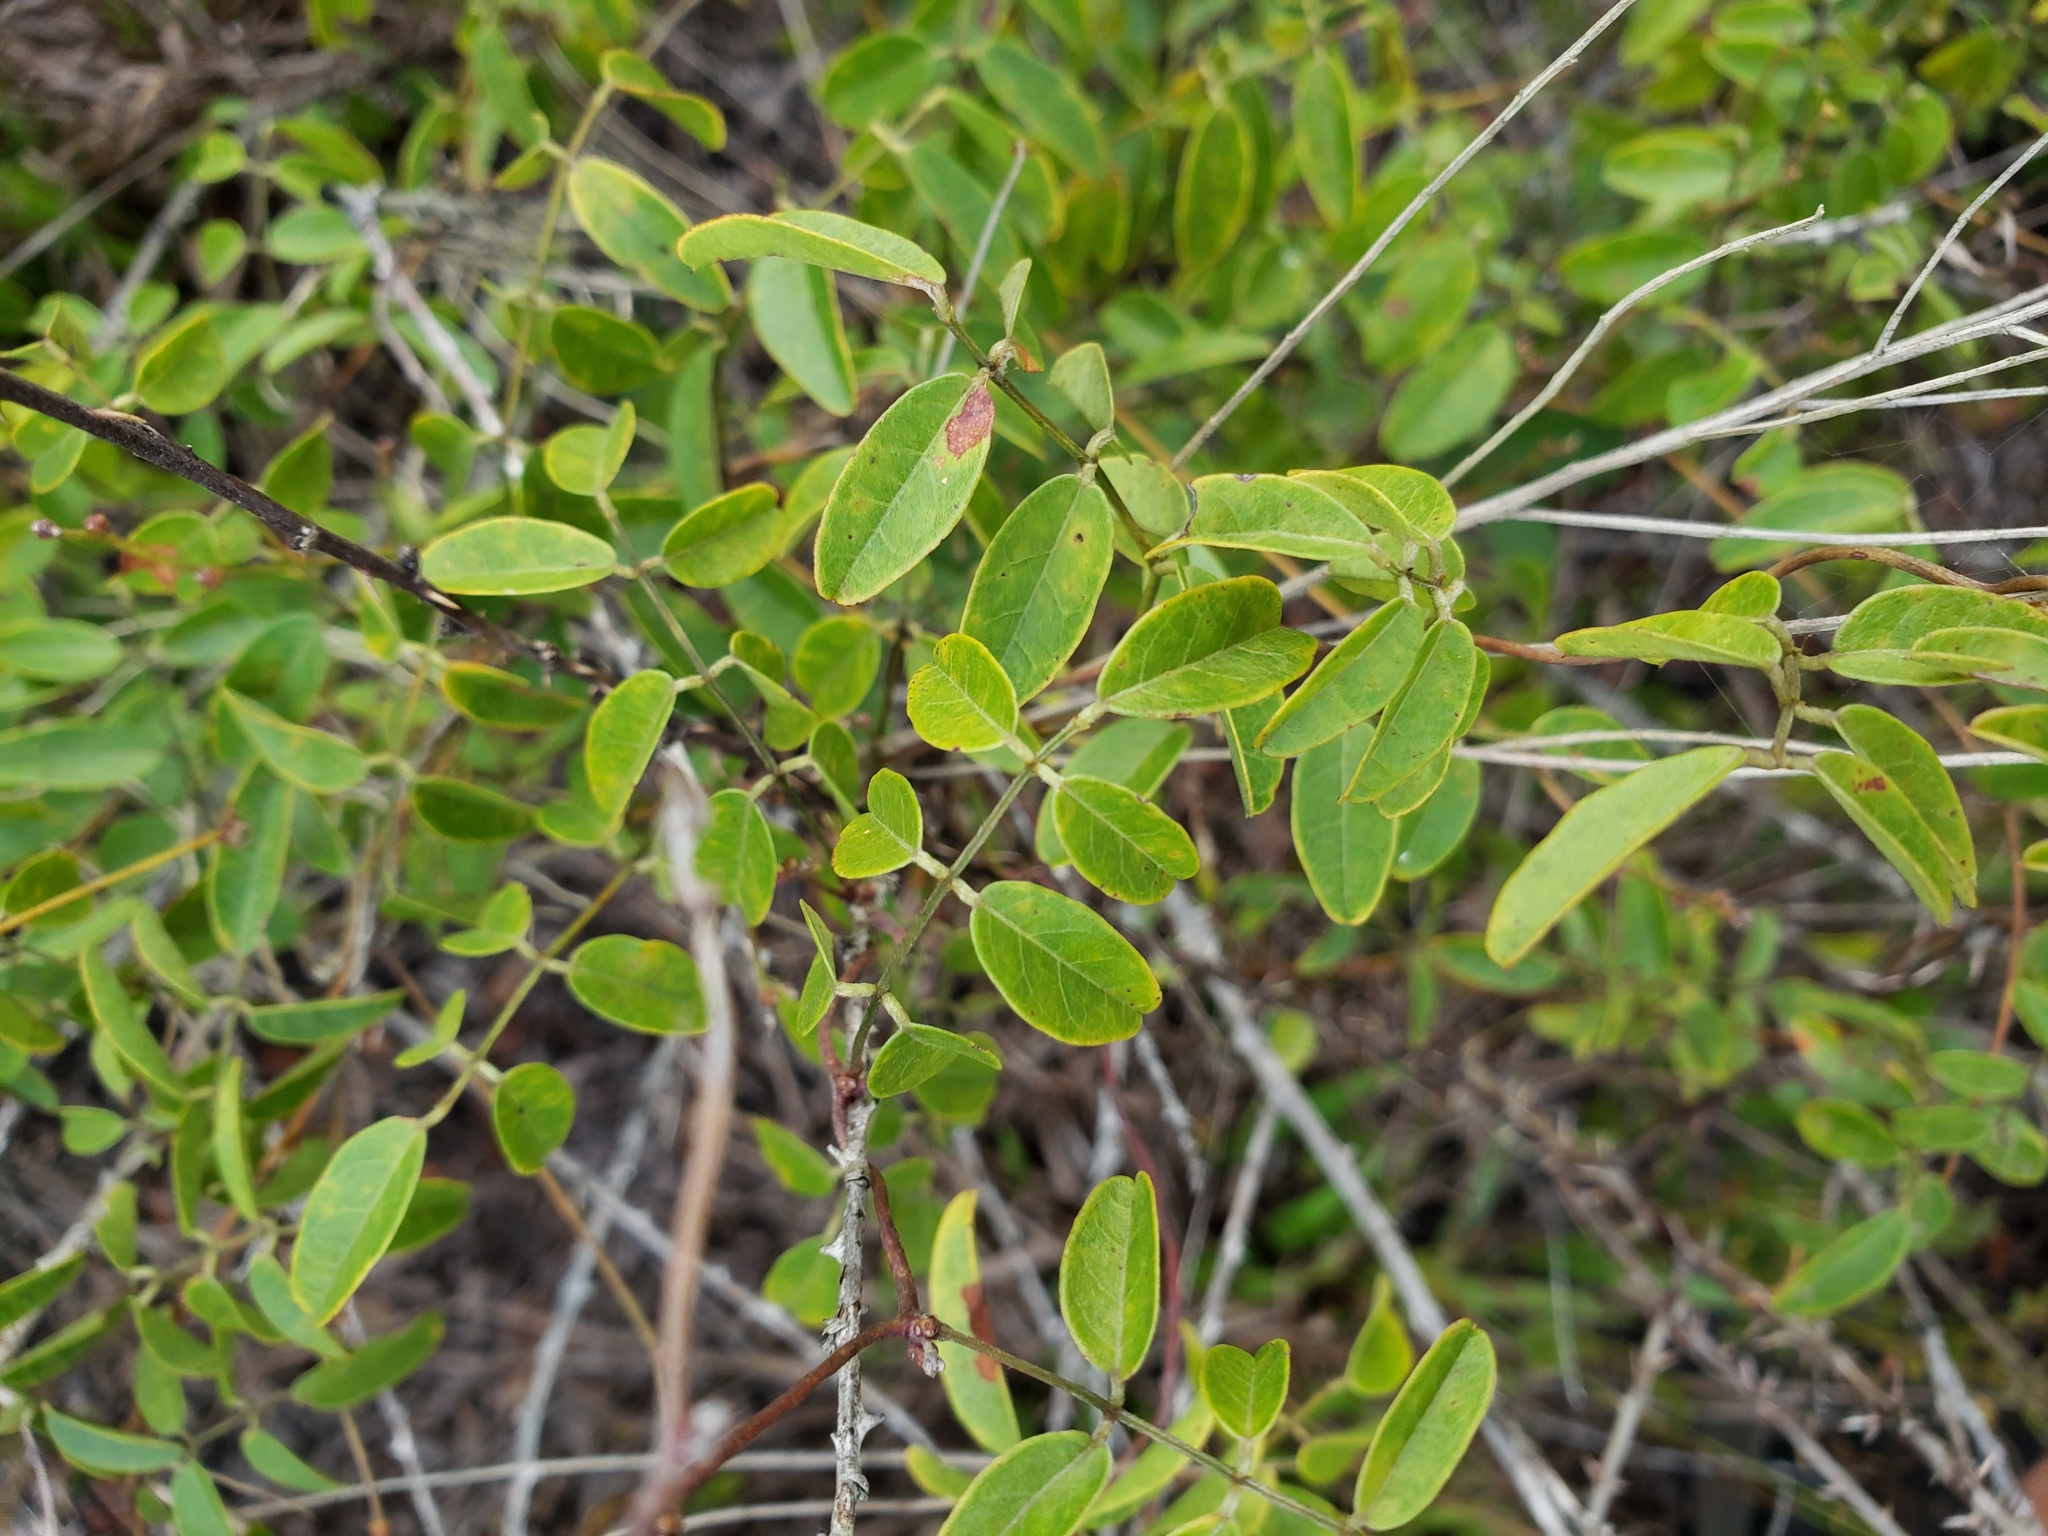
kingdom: Plantae
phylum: Tracheophyta
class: Magnoliopsida
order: Fabales
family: Fabaceae
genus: Galactia
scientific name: Galactia elliottii
